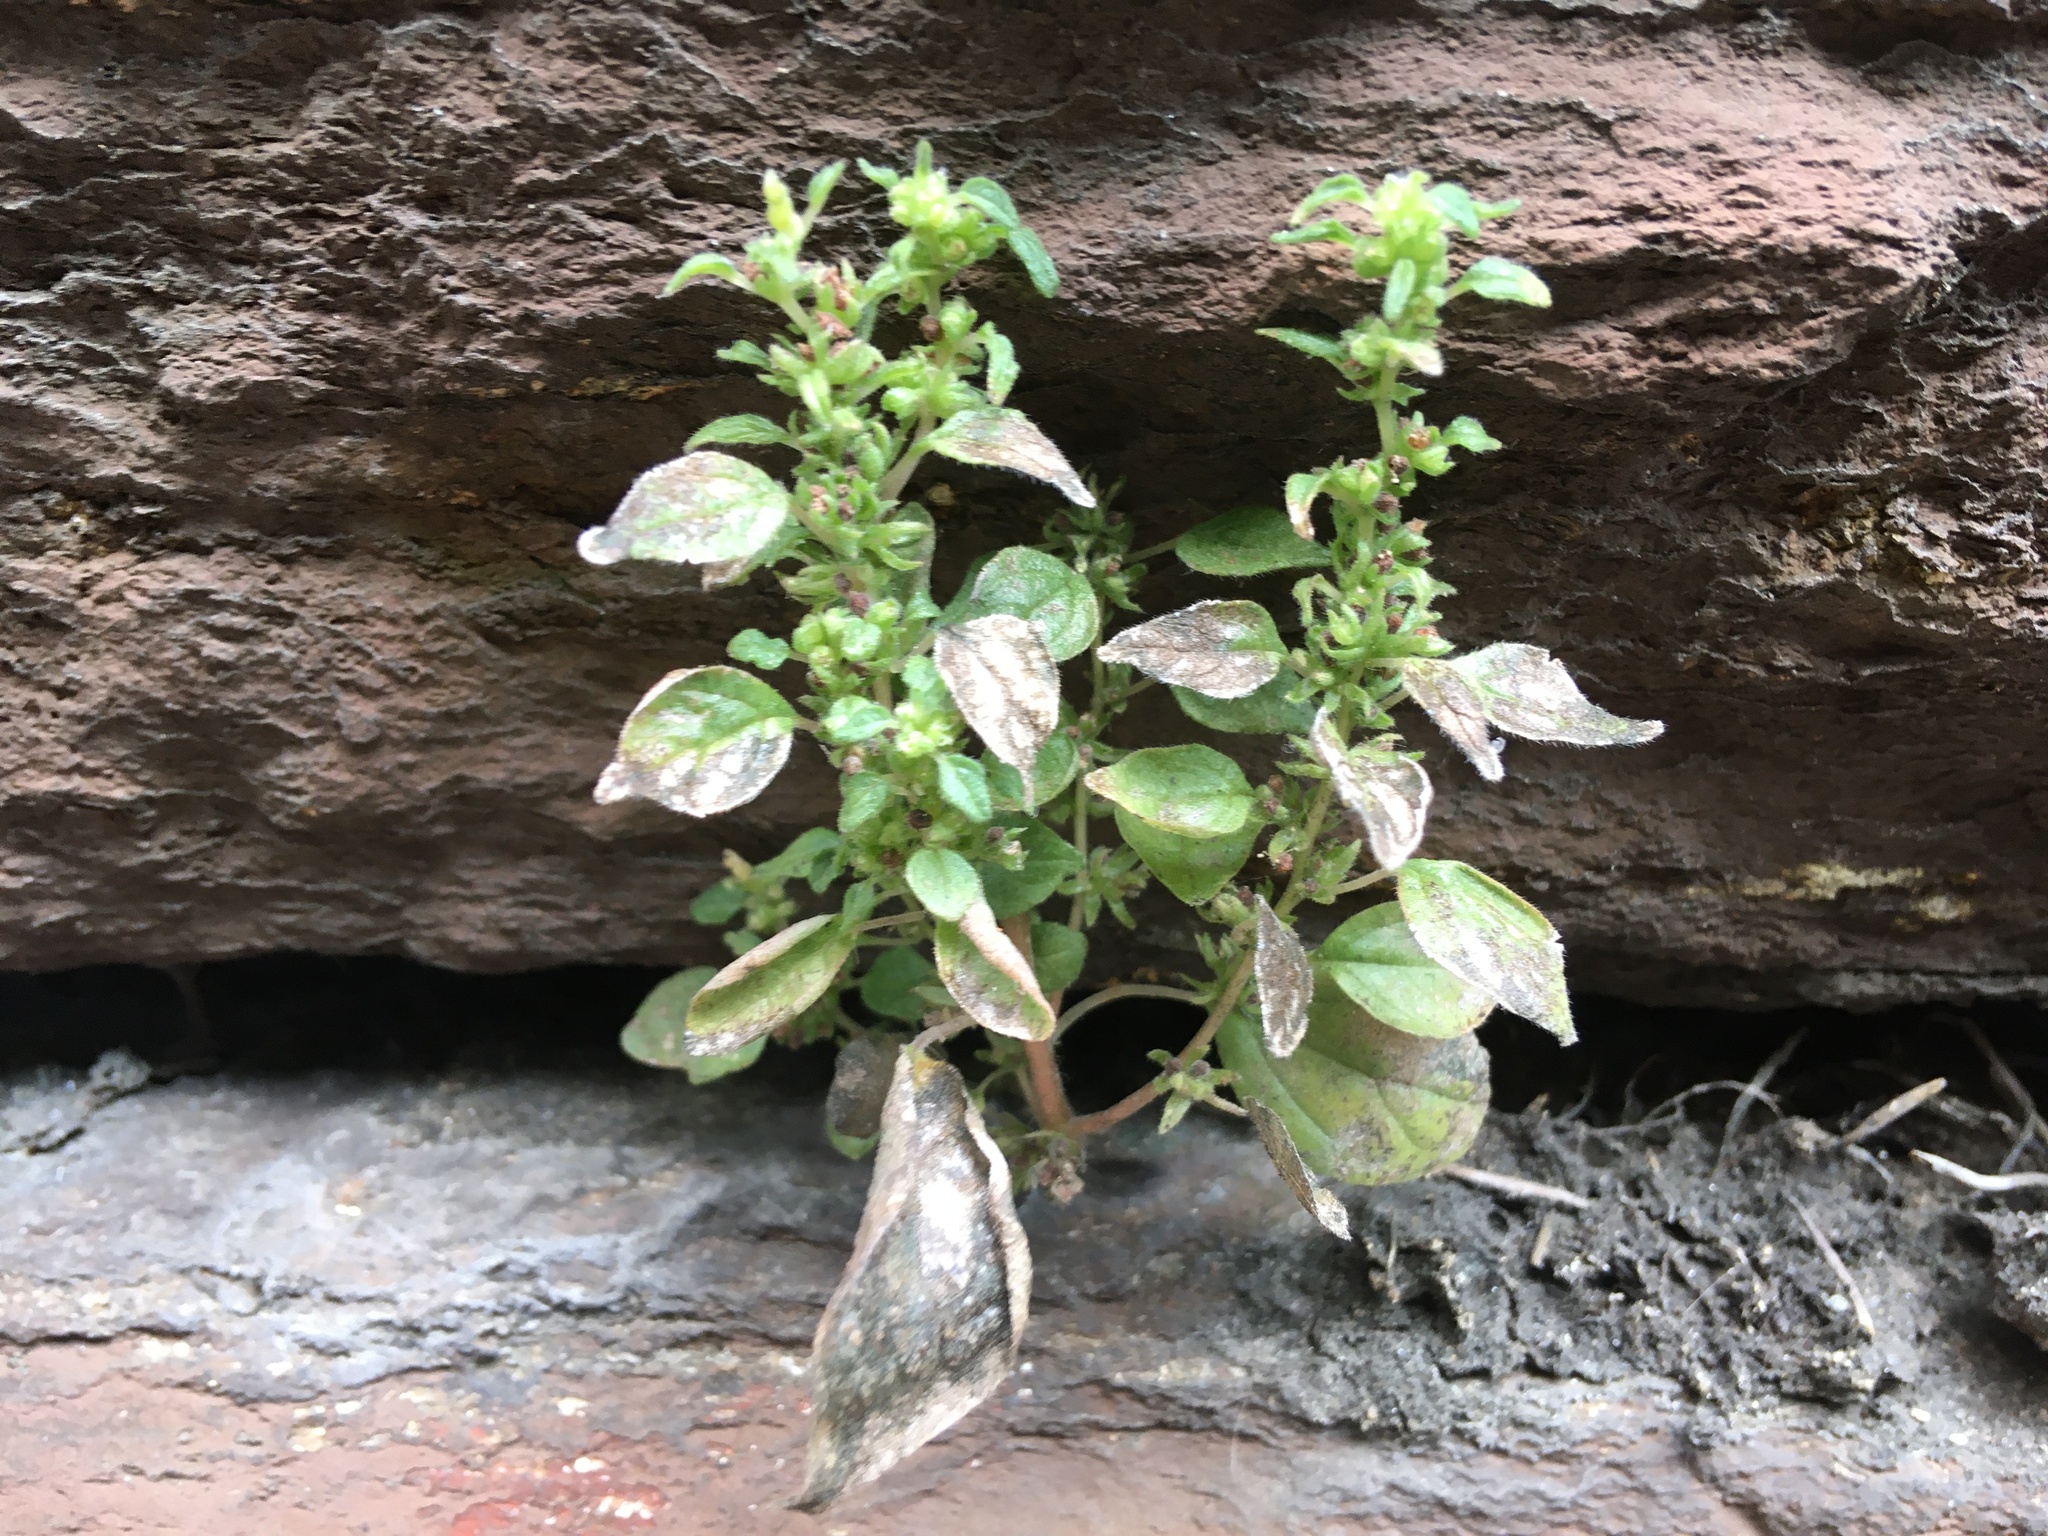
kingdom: Plantae
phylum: Tracheophyta
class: Magnoliopsida
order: Rosales
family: Urticaceae
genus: Parietaria
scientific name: Parietaria pensylvanica
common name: Pennsylvania pellitory
